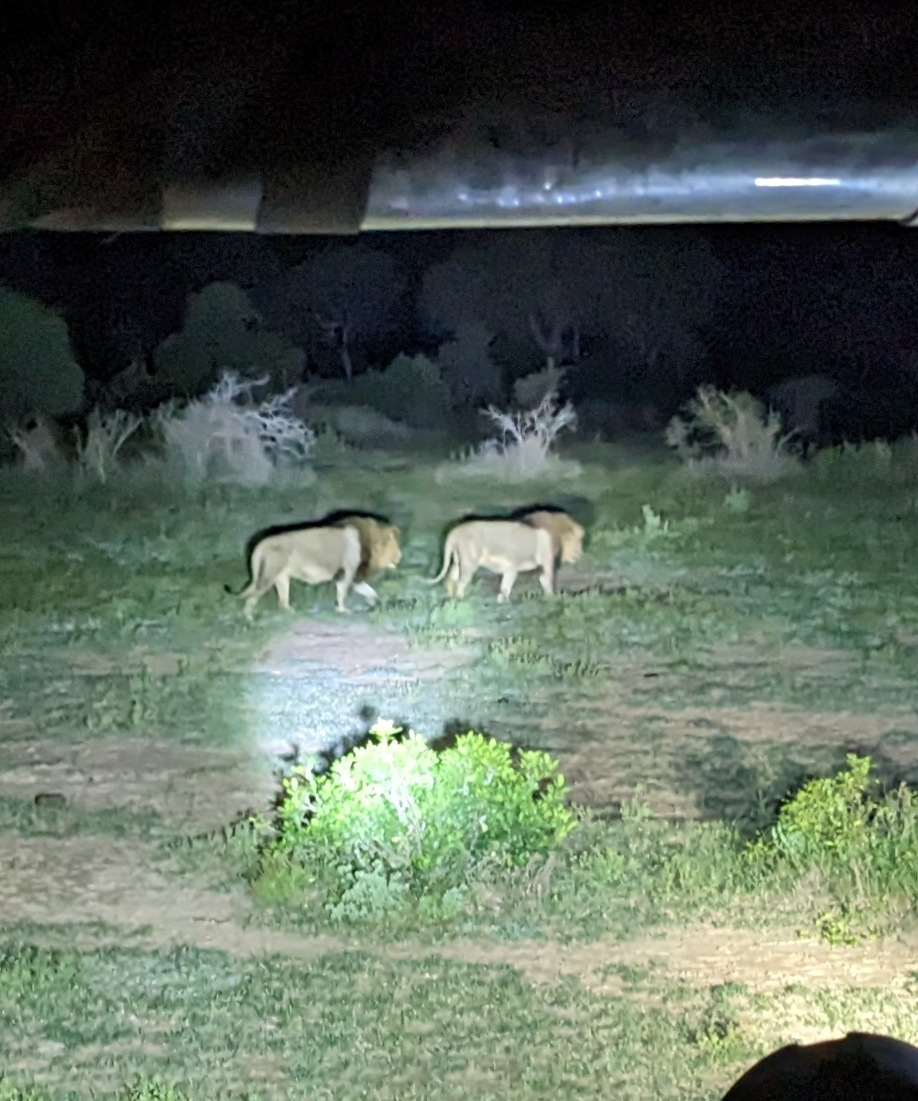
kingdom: Animalia
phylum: Chordata
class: Mammalia
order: Carnivora
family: Felidae
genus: Panthera
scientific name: Panthera leo
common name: Lion
